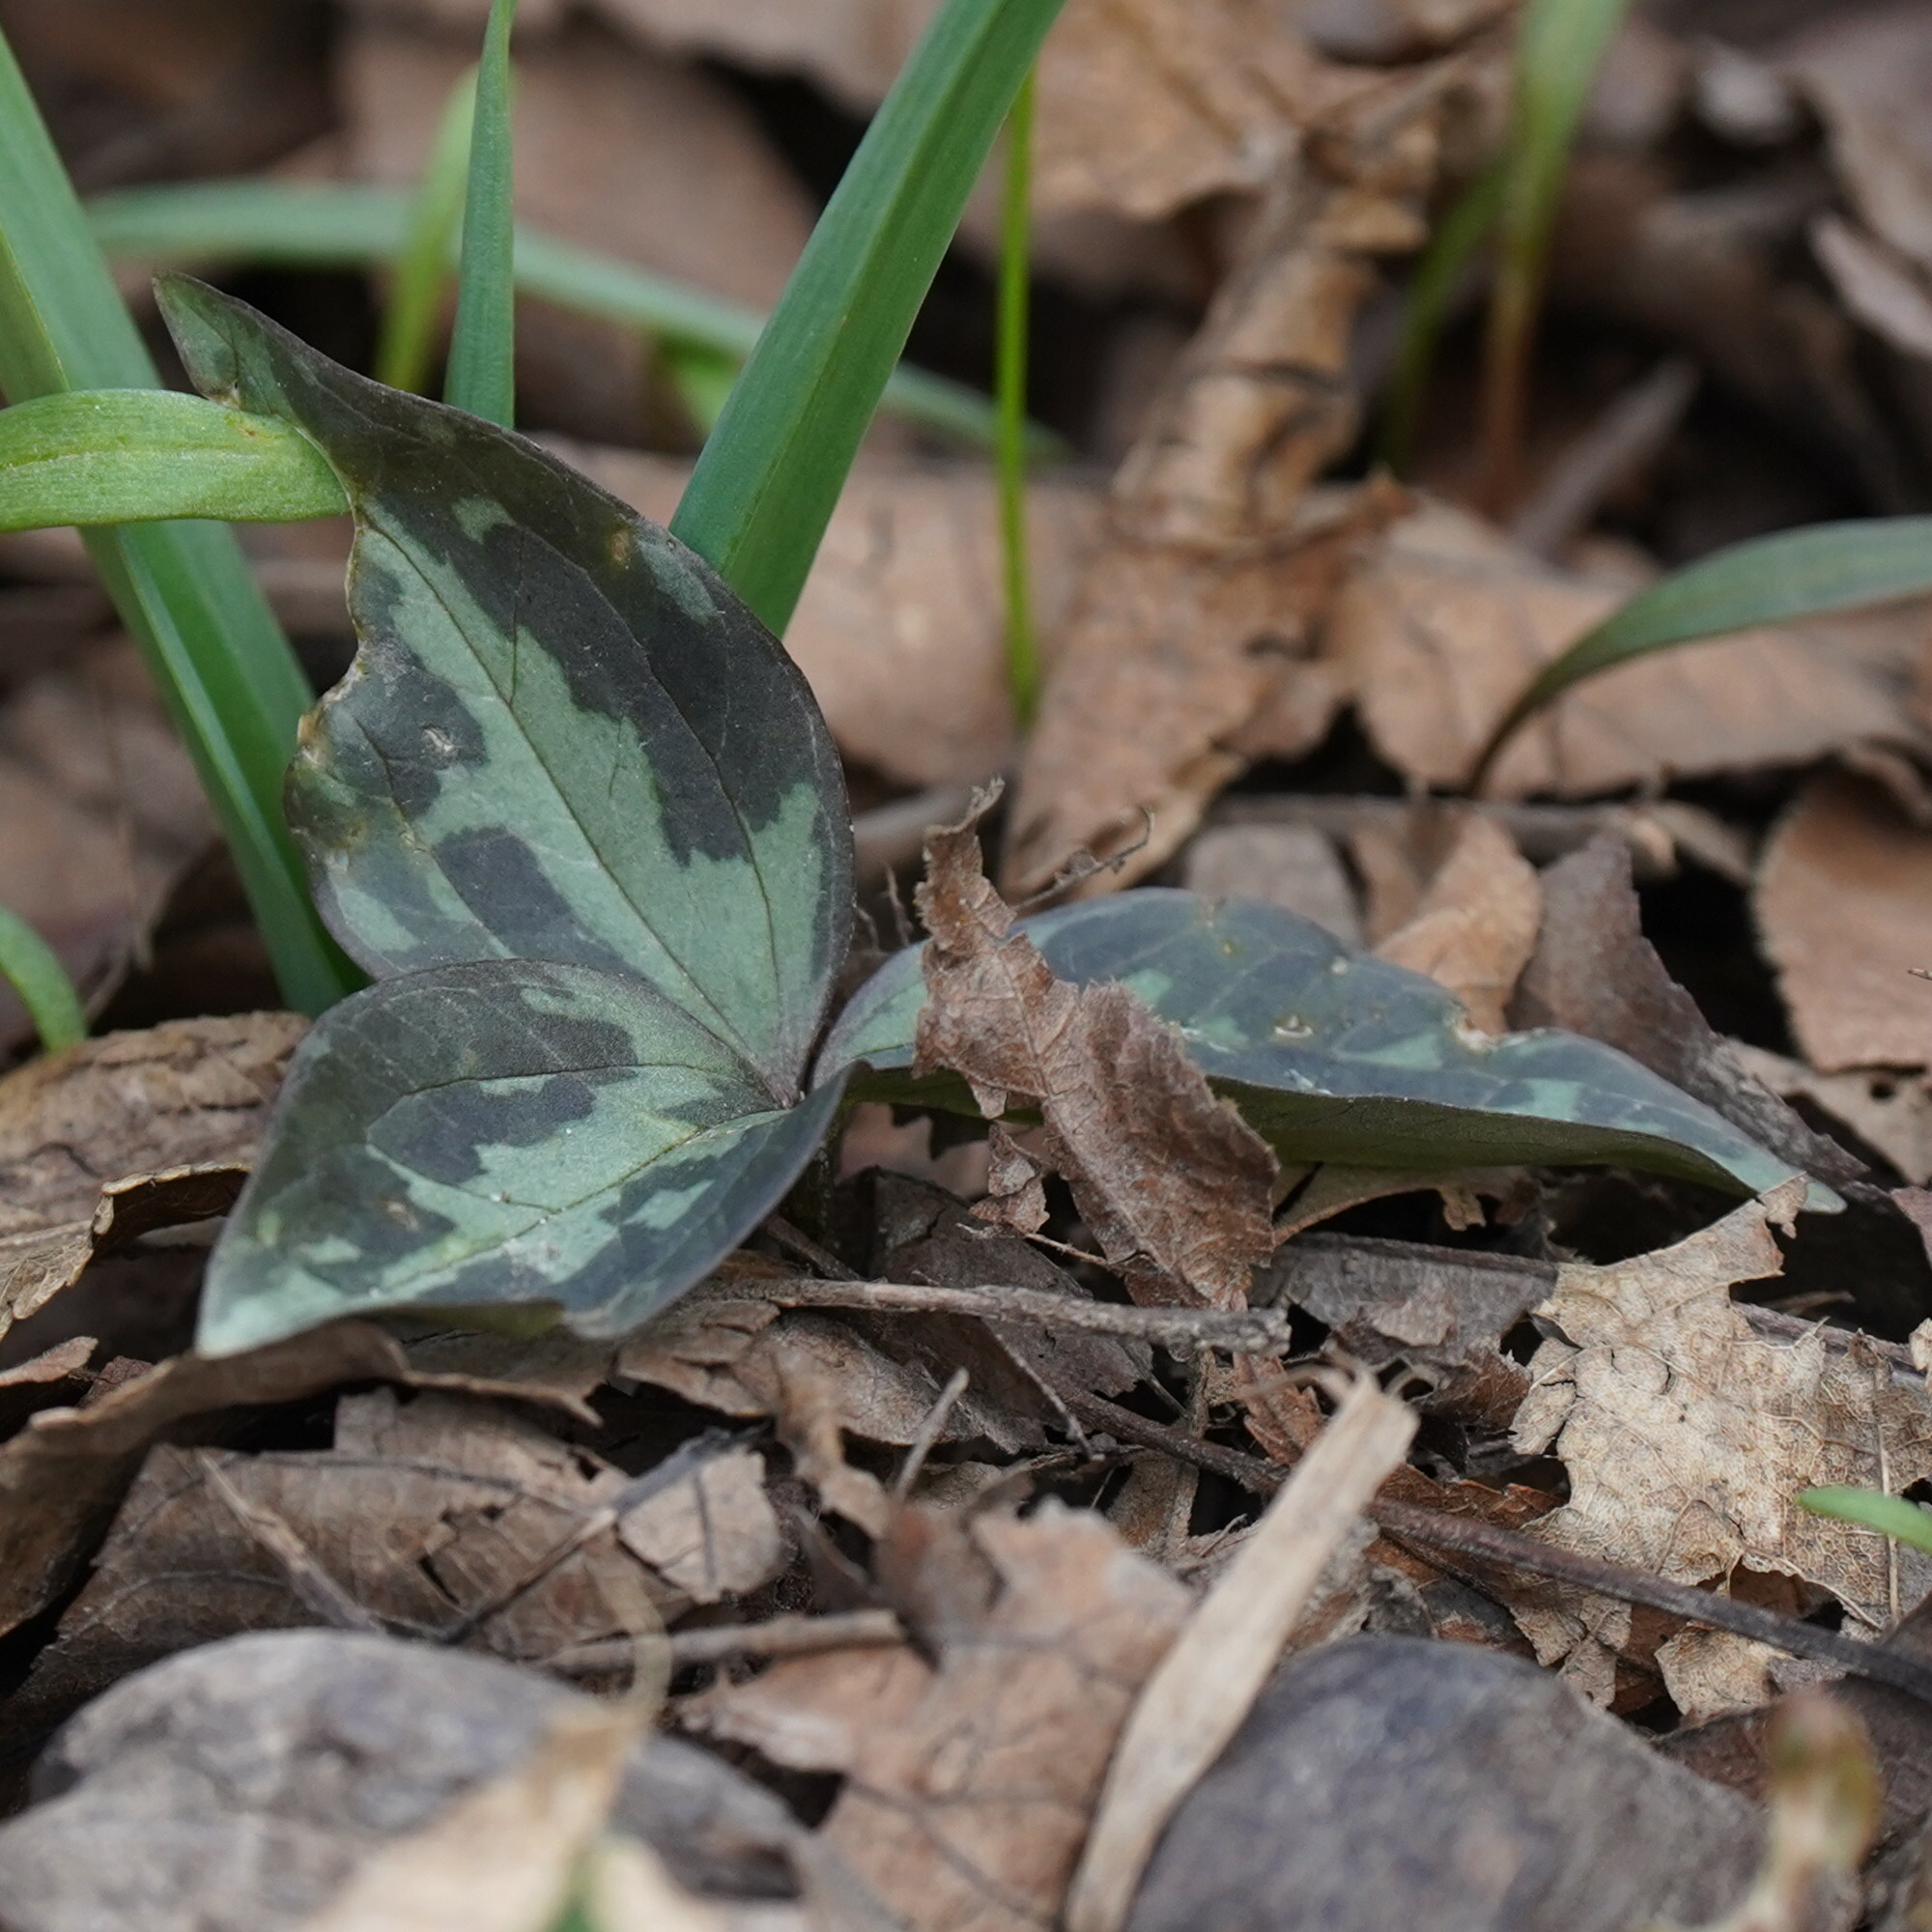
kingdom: Plantae
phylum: Tracheophyta
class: Liliopsida
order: Liliales
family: Melanthiaceae
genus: Trillium
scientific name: Trillium recurvatum
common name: Bloody butcher
